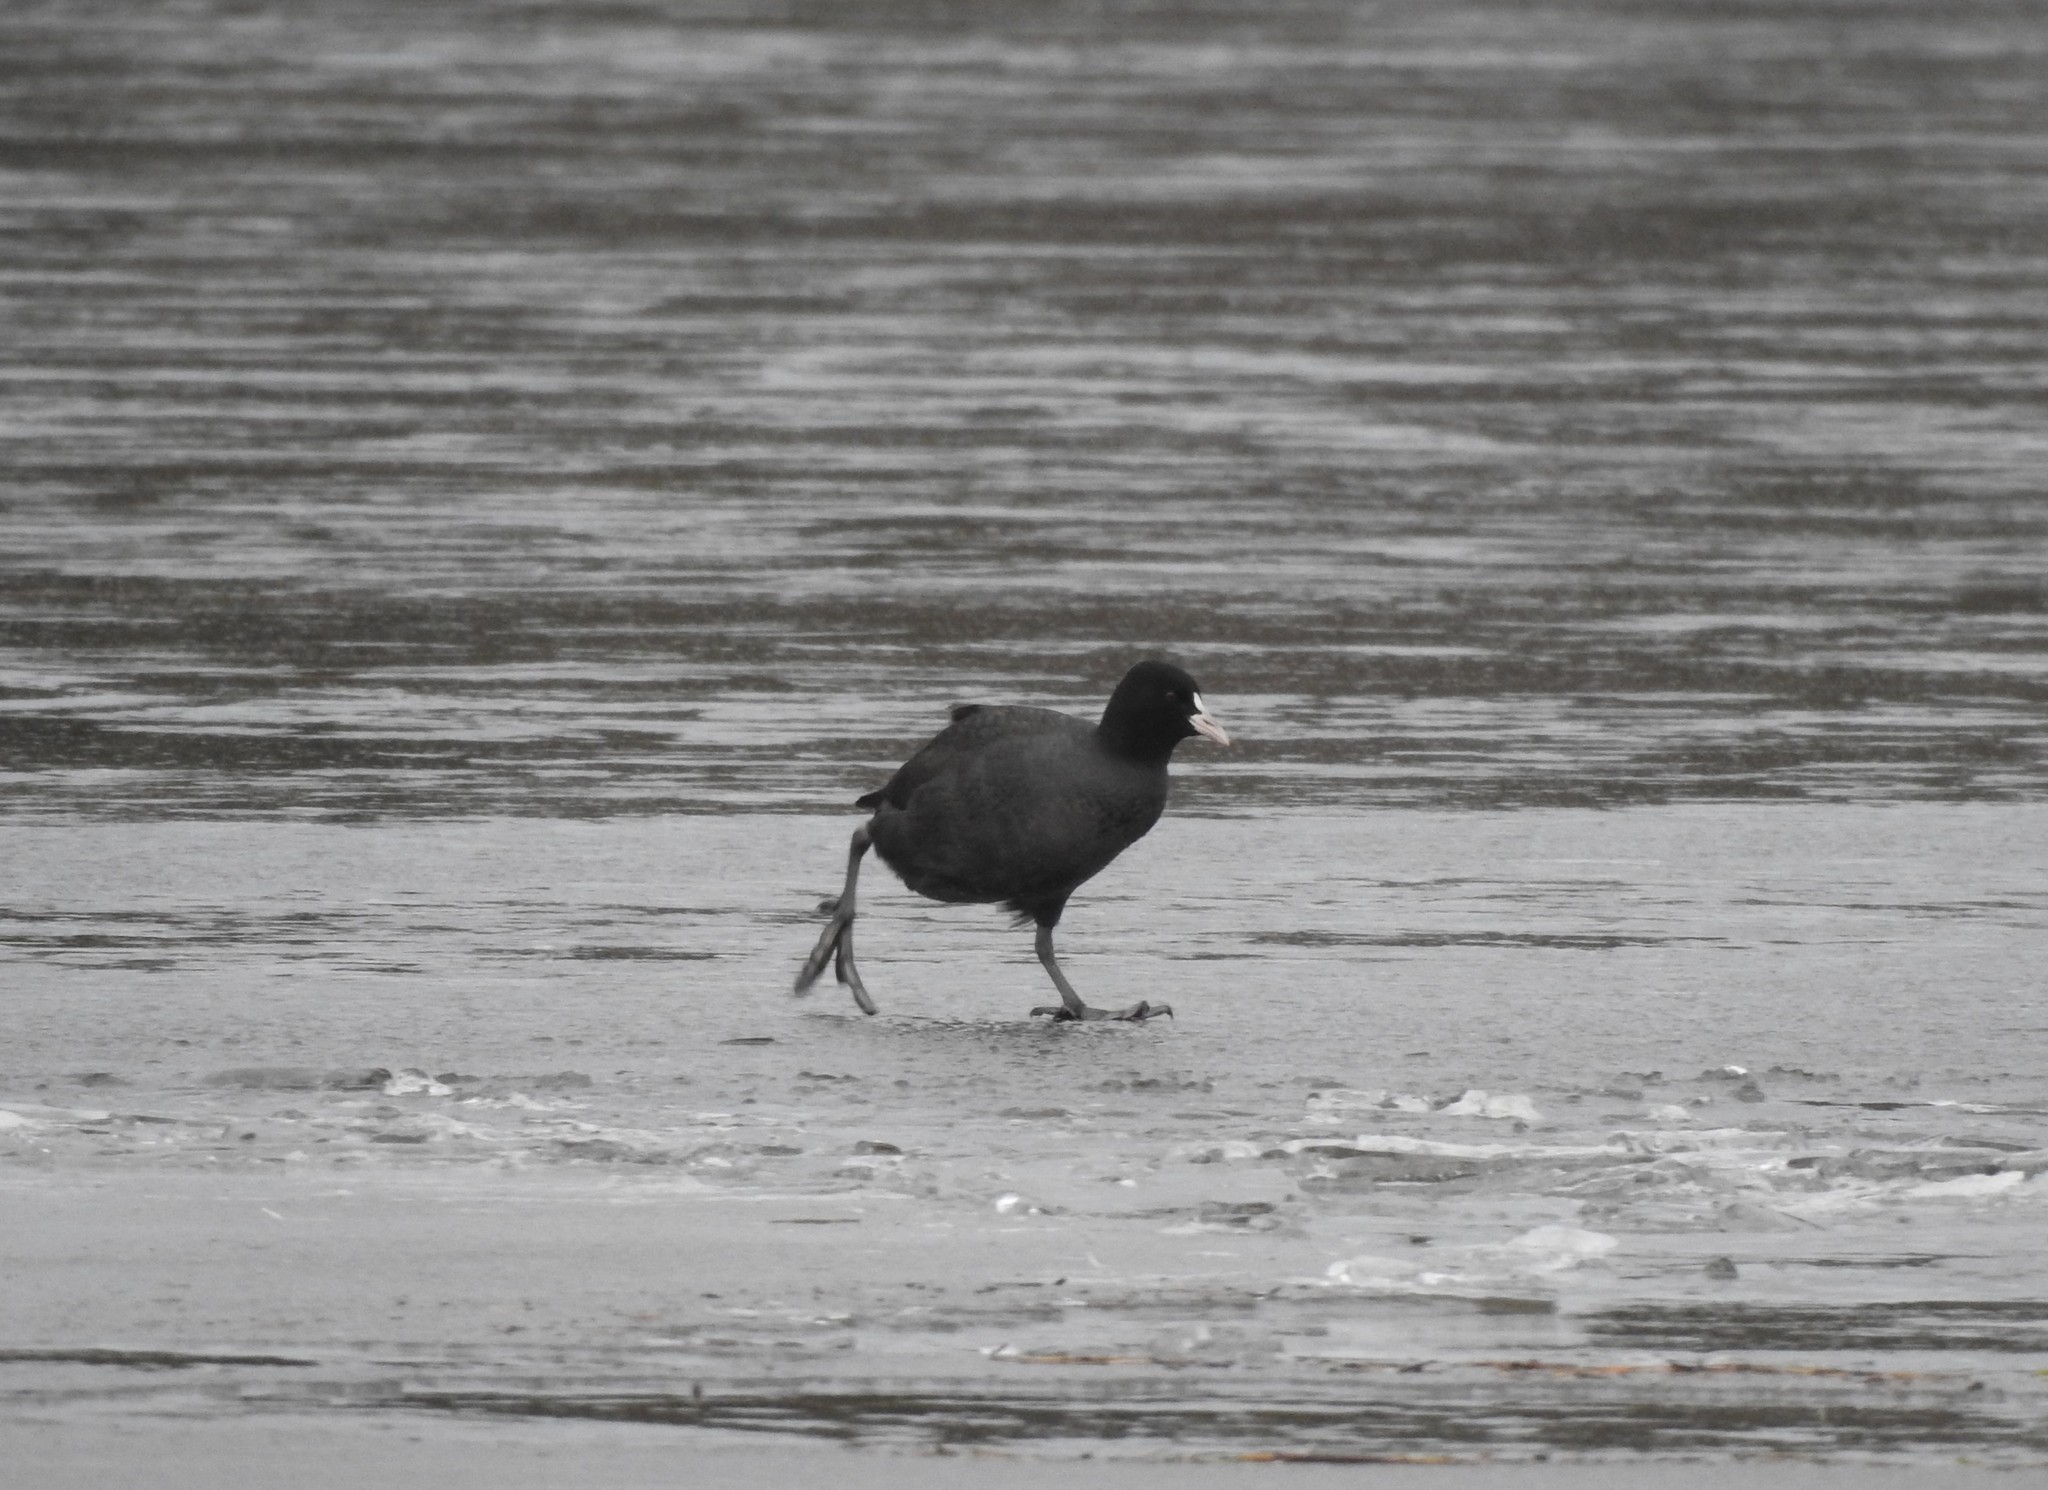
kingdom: Animalia
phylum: Chordata
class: Aves
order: Gruiformes
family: Rallidae
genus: Fulica
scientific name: Fulica atra
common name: Eurasian coot
